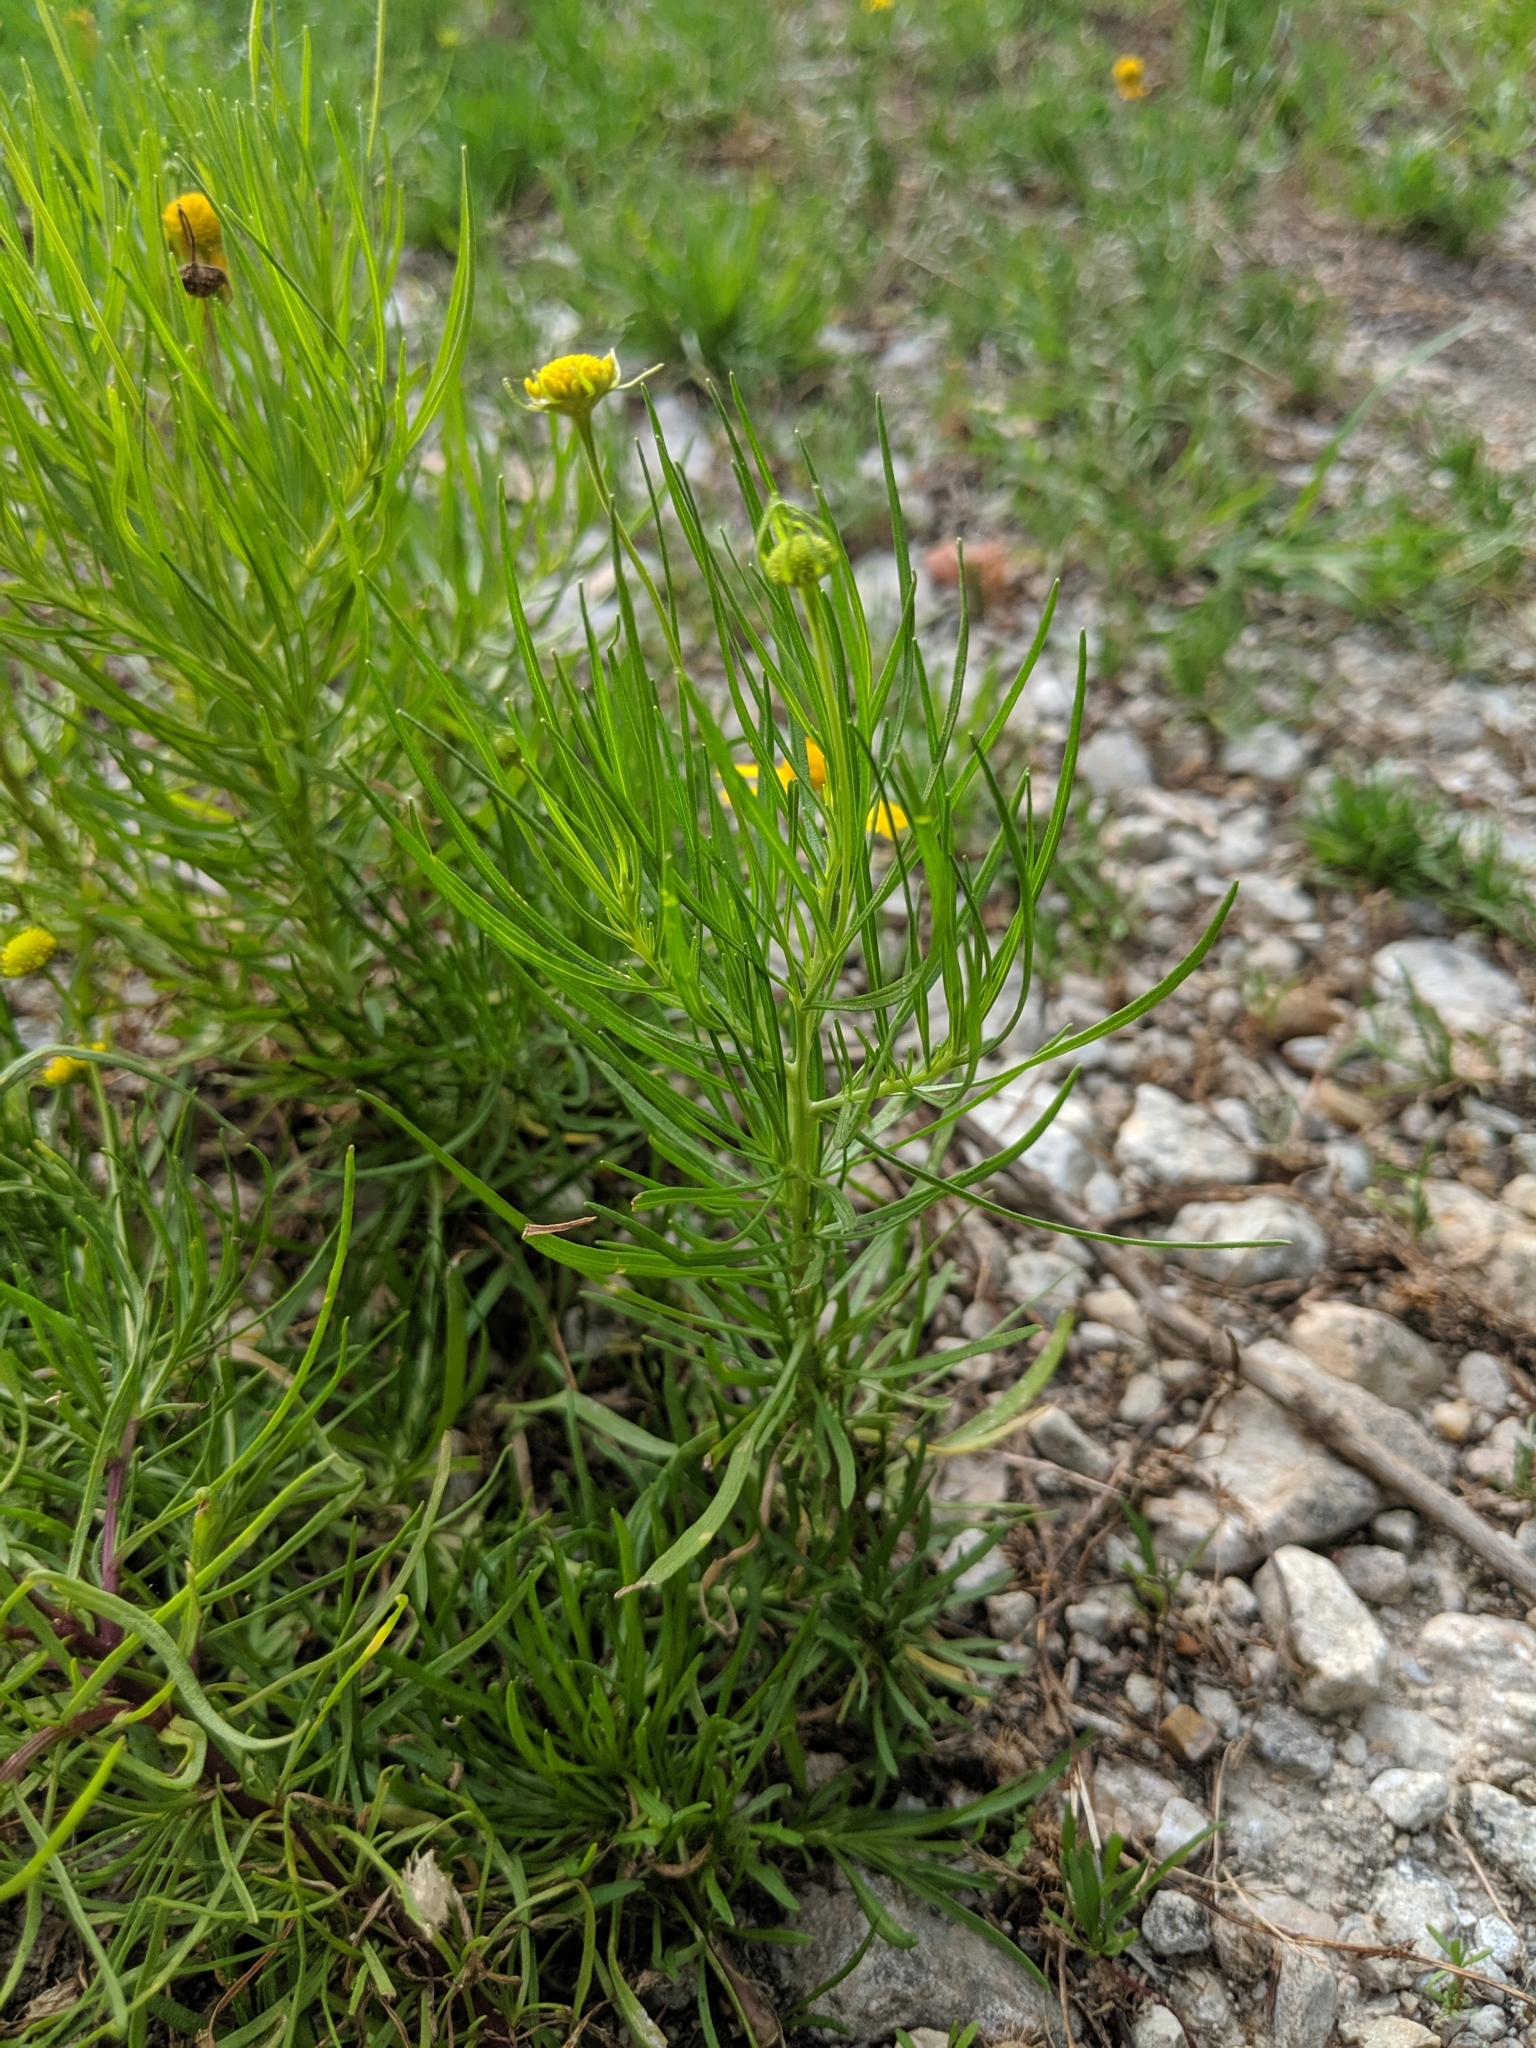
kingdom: Plantae
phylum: Tracheophyta
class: Magnoliopsida
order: Asterales
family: Asteraceae
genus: Helenium
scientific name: Helenium amarum
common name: Bitter sneezeweed
